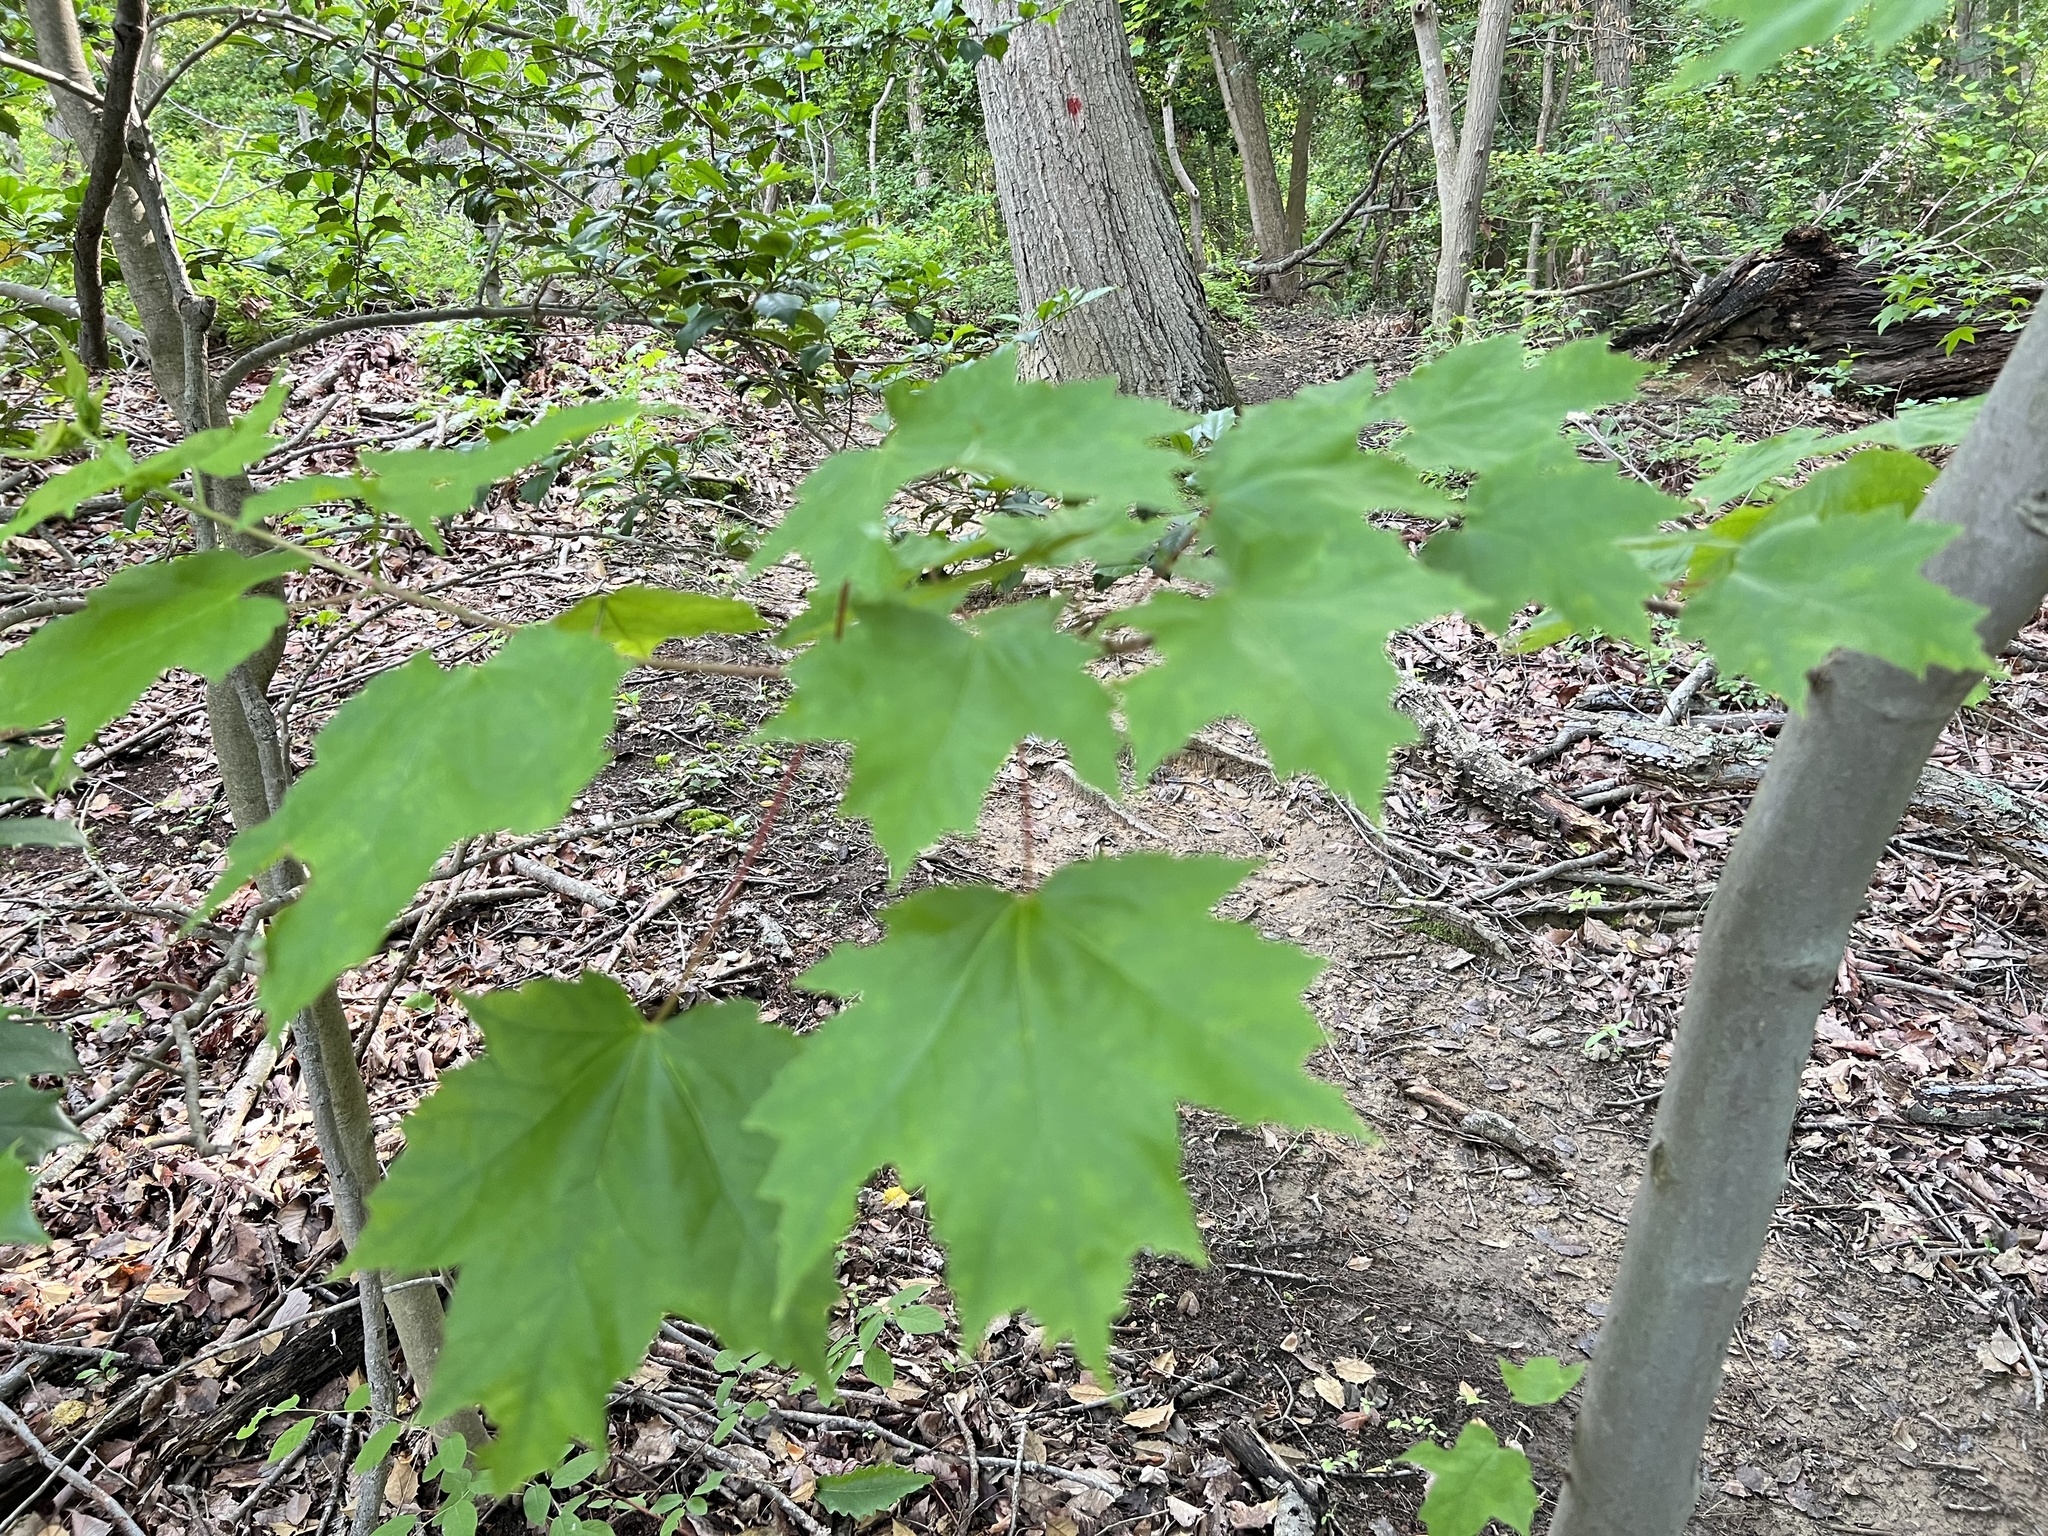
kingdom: Plantae
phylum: Tracheophyta
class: Magnoliopsida
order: Sapindales
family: Sapindaceae
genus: Acer
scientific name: Acer rubrum
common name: Red maple
